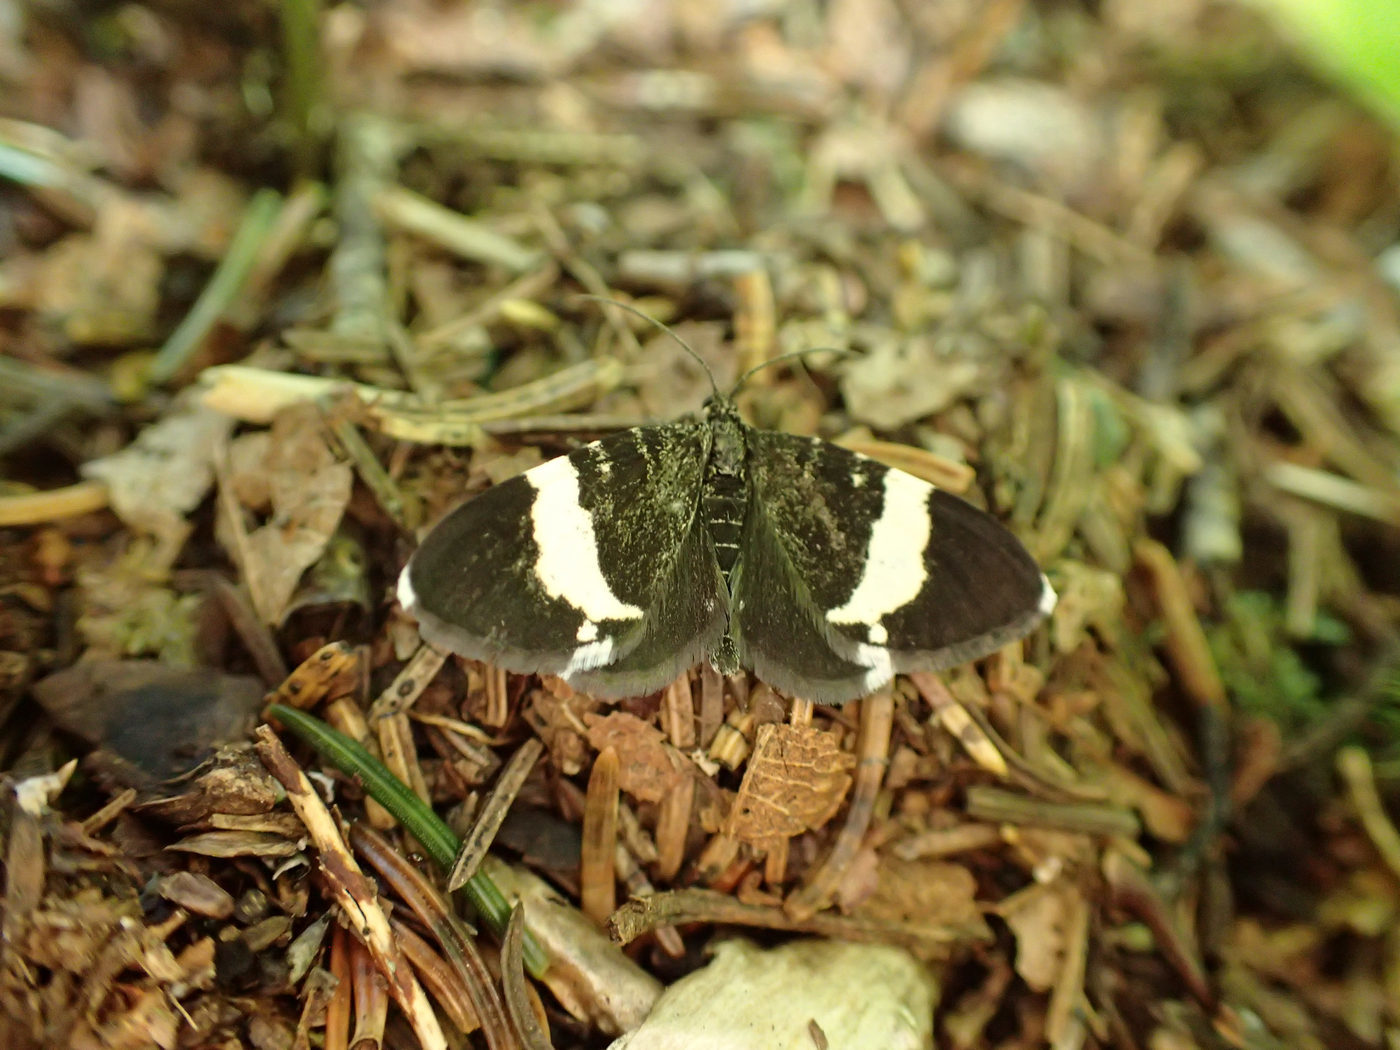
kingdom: Animalia
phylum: Arthropoda
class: Insecta
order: Lepidoptera
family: Geometridae
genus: Trichodezia
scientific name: Trichodezia albovittata
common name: White striped black
